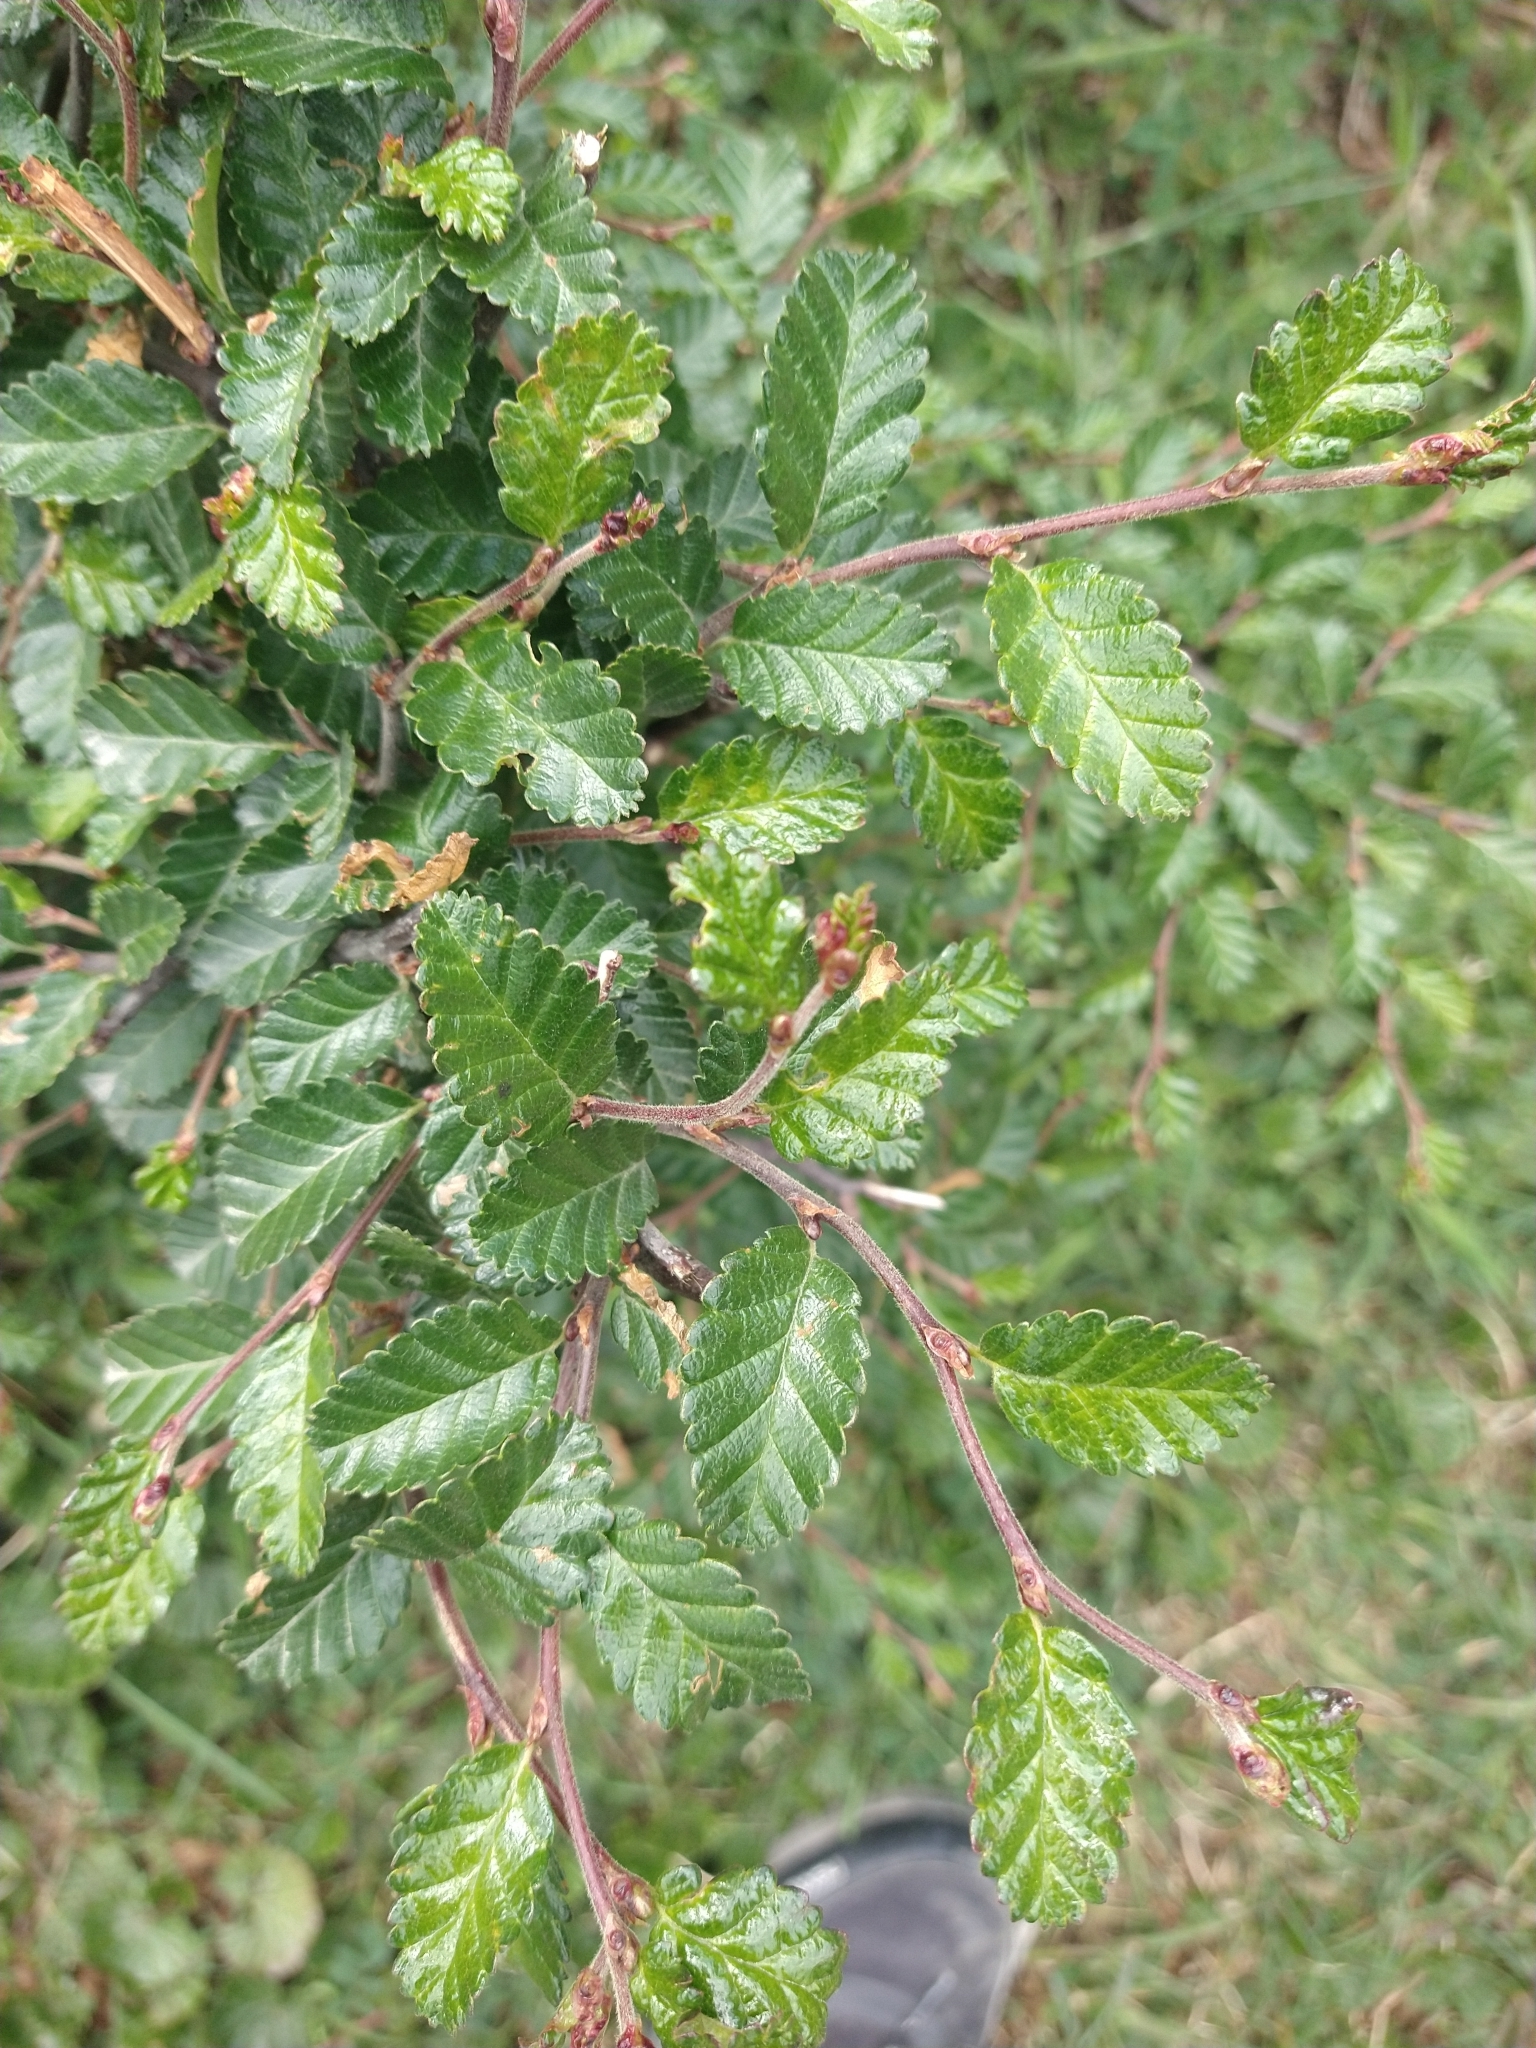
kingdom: Plantae
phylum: Tracheophyta
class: Magnoliopsida
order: Fagales
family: Nothofagaceae
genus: Nothofagus
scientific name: Nothofagus pumilio
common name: Lenga beech
